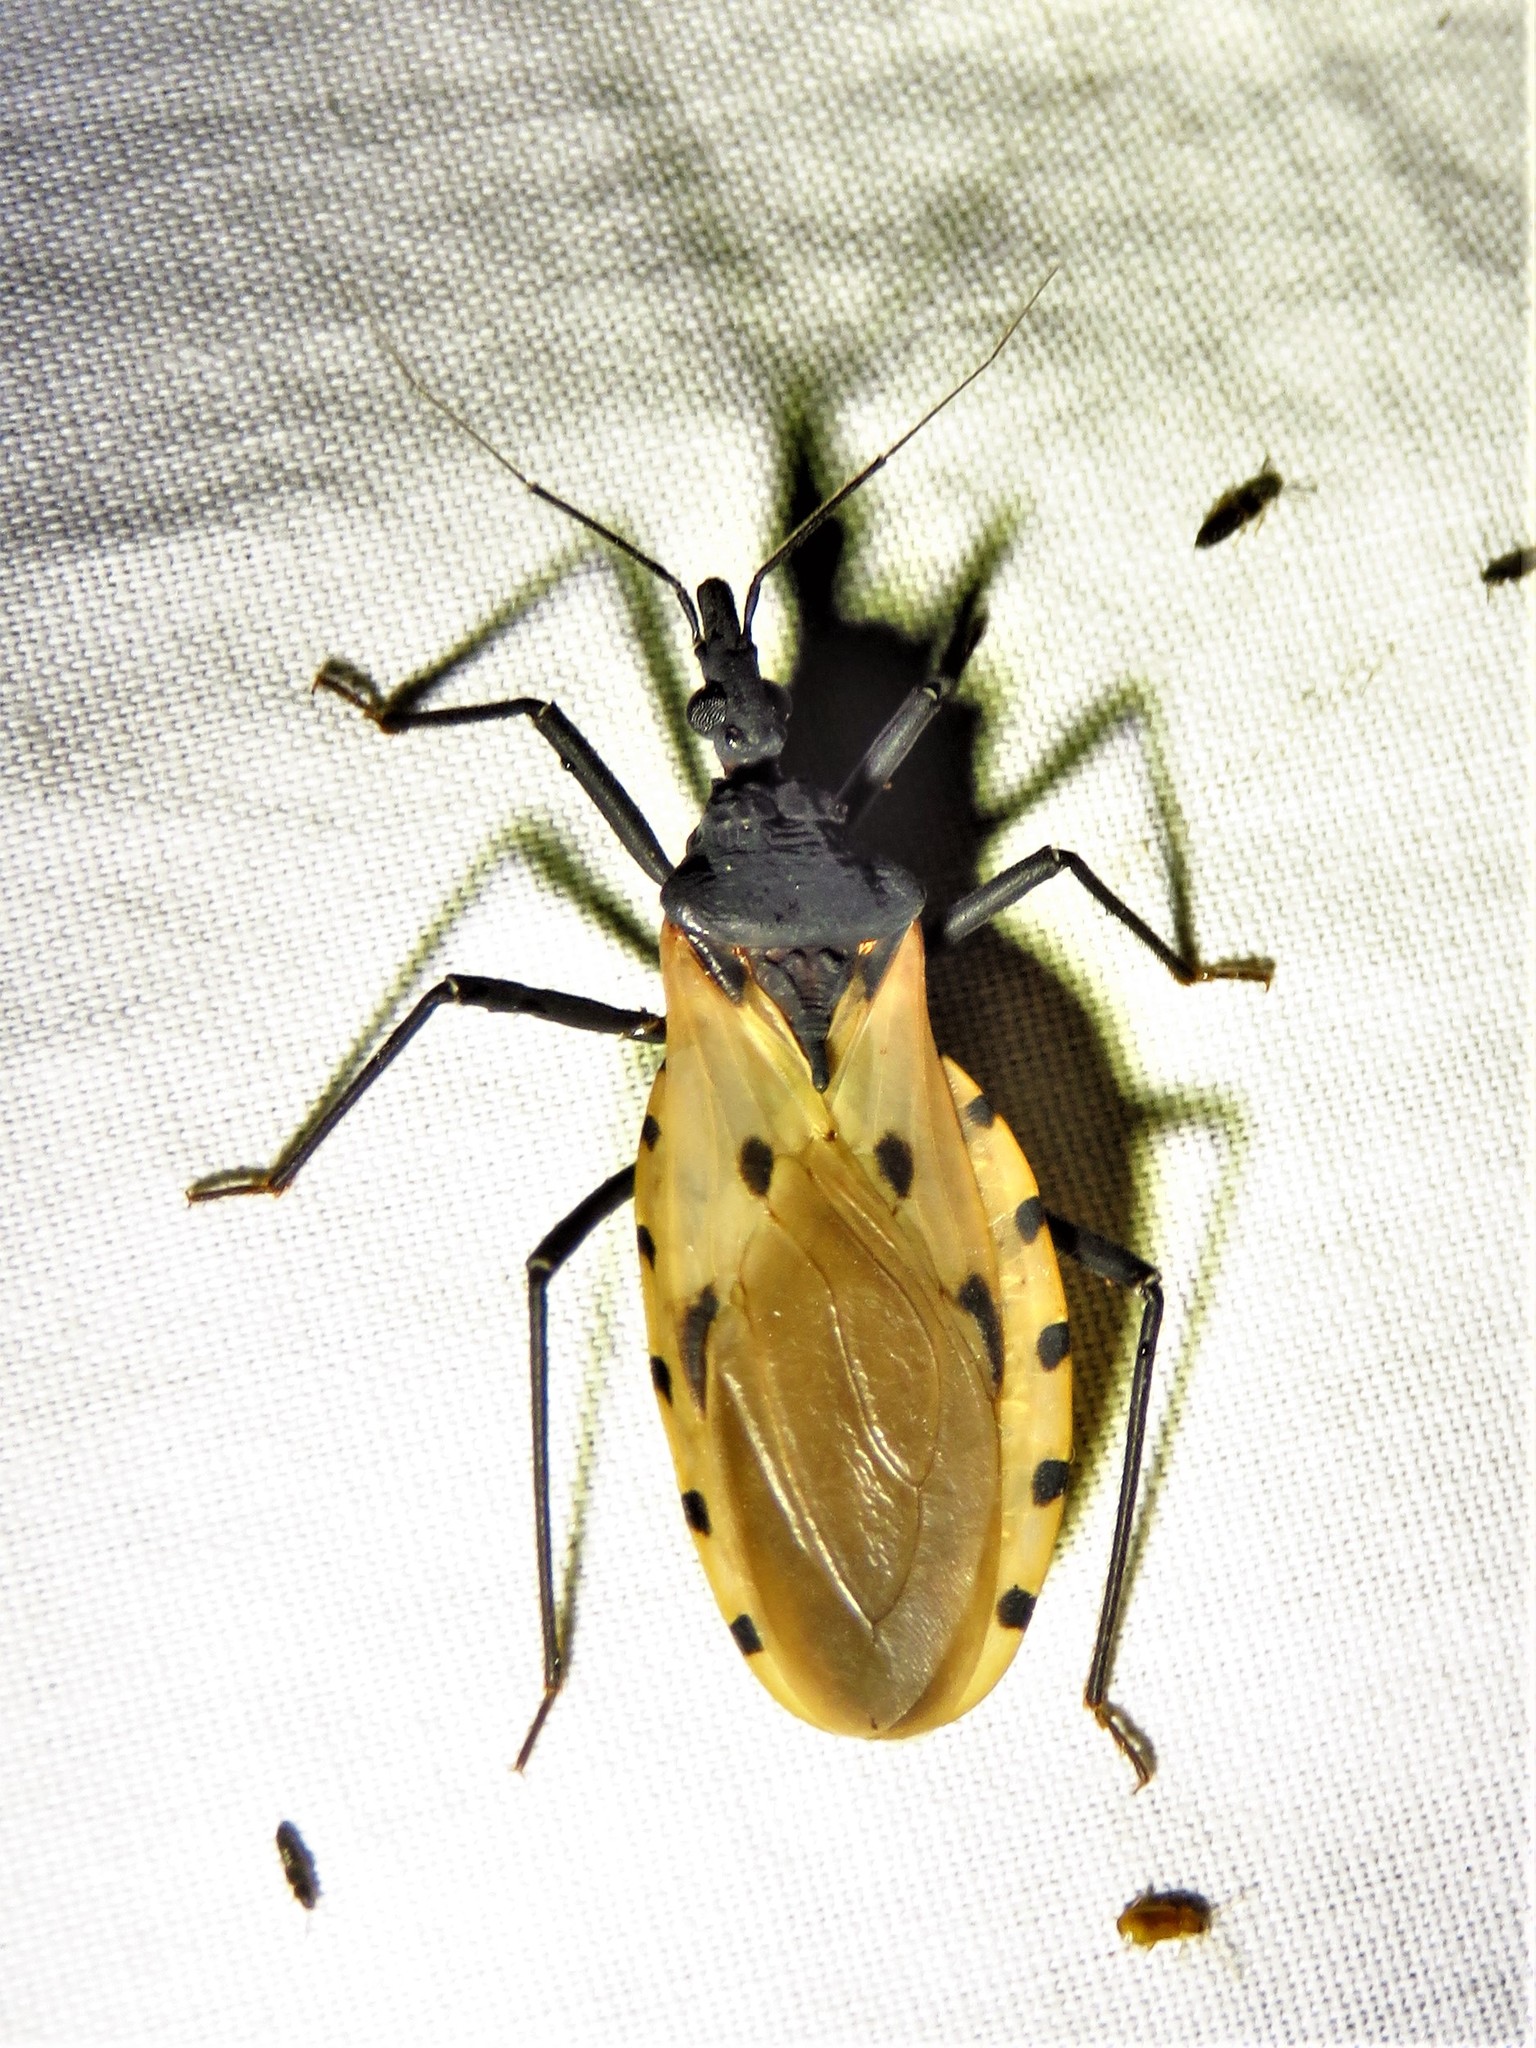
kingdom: Animalia
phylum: Arthropoda
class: Insecta
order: Hemiptera
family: Reduviidae
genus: Meccus
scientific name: Meccus dimidiatus
